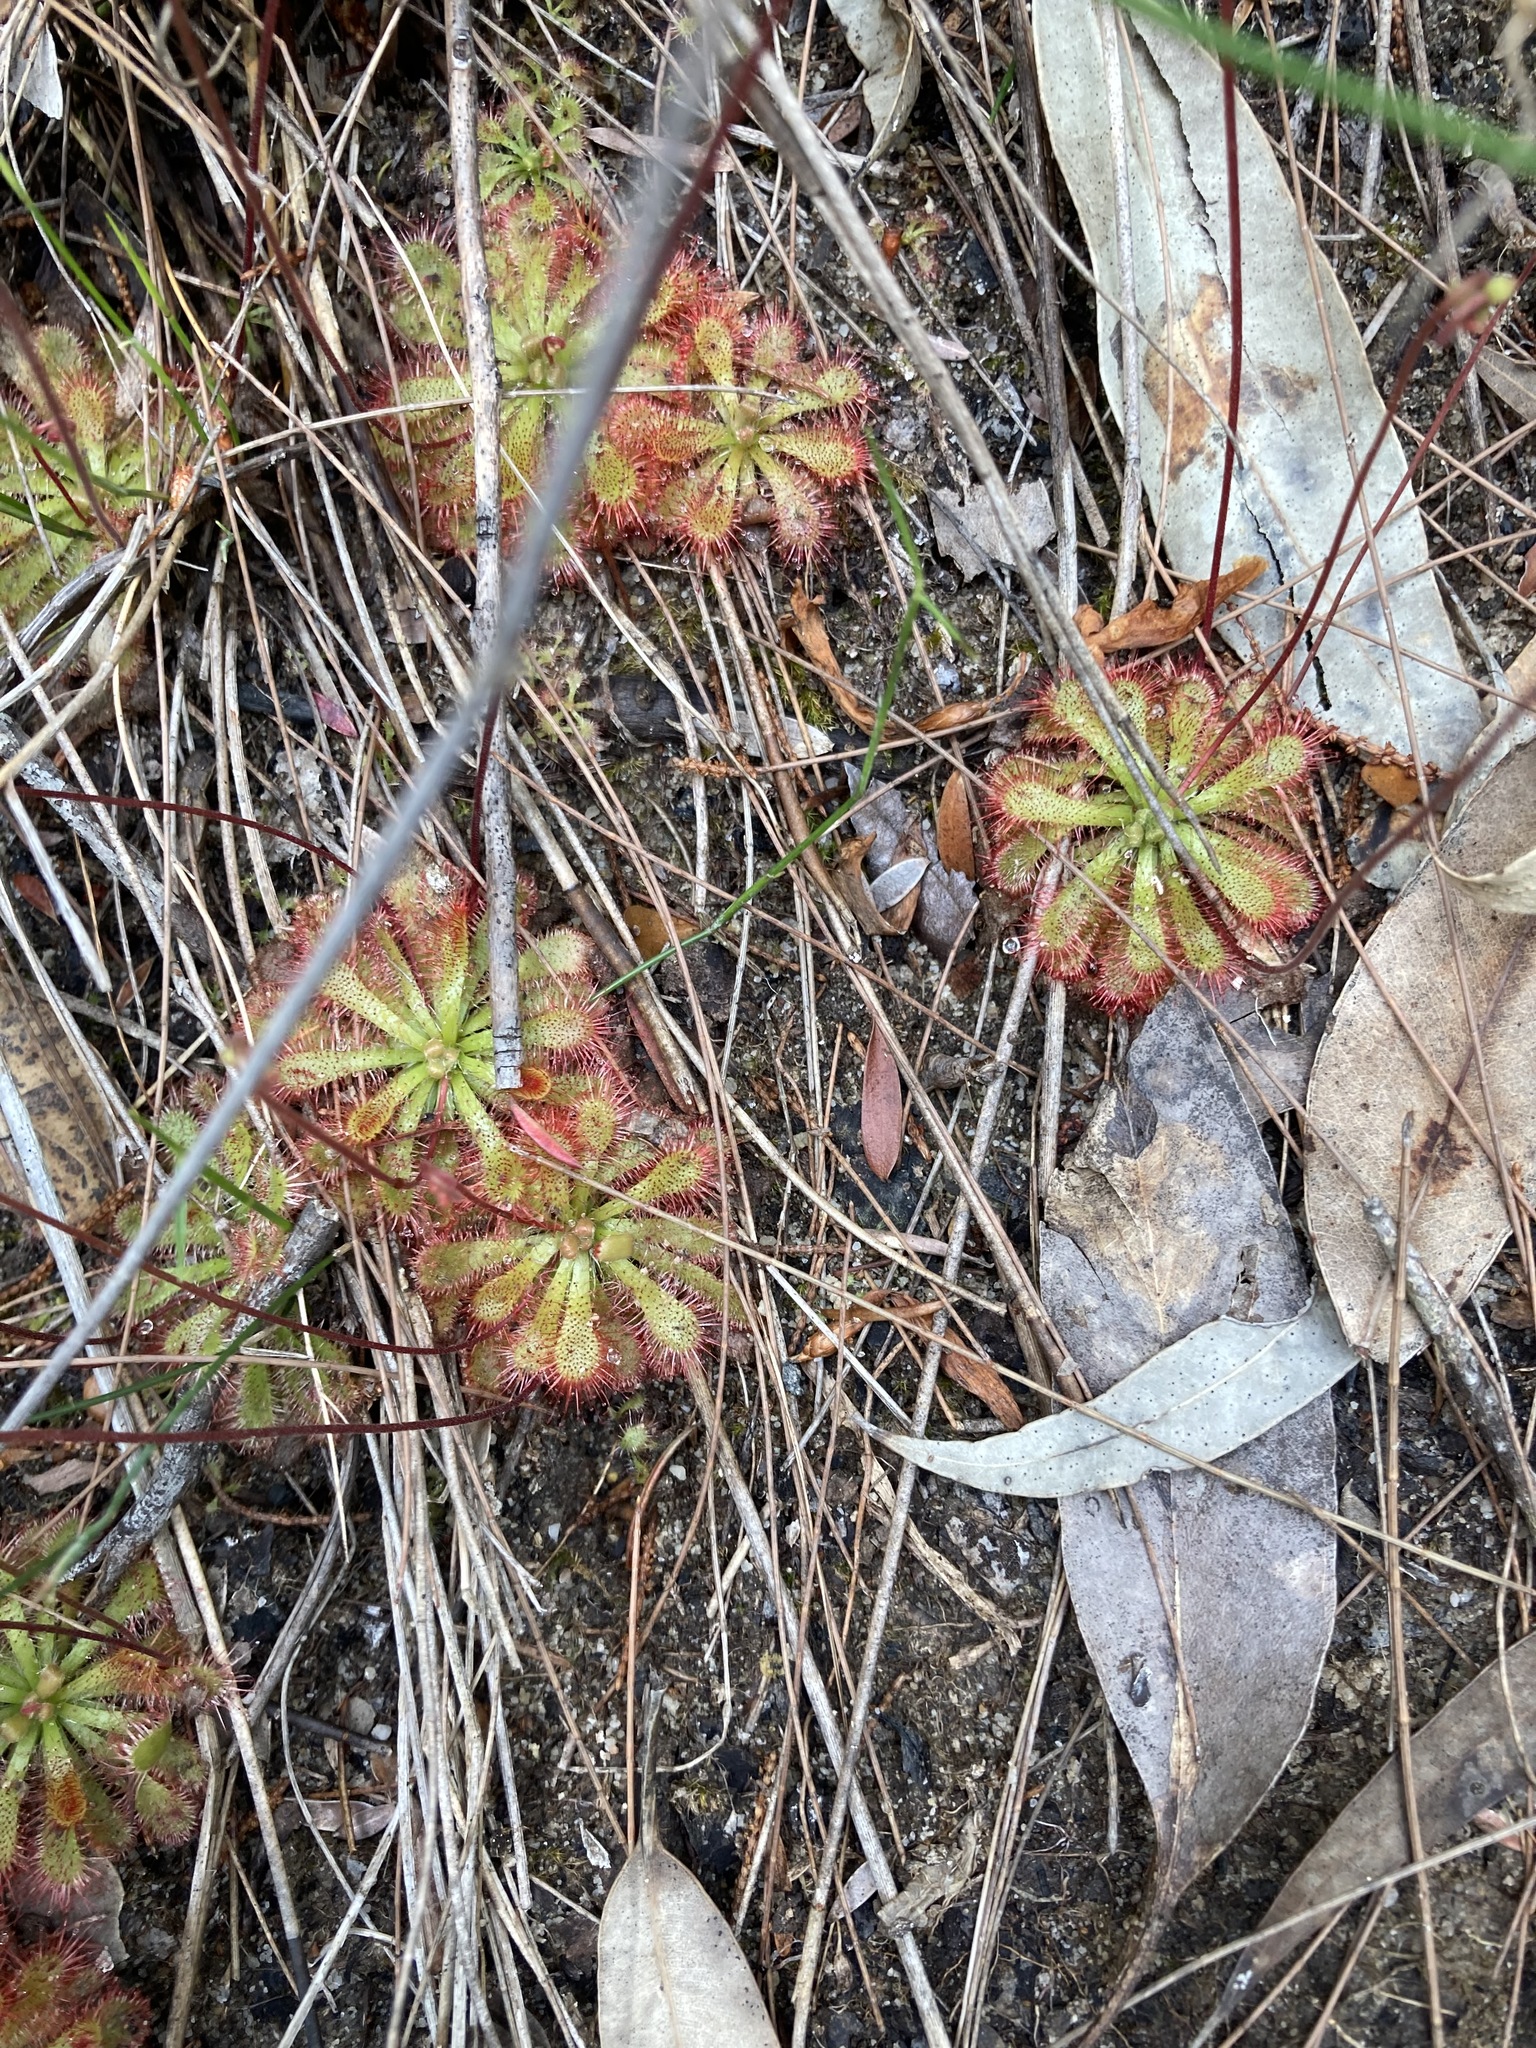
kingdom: Plantae
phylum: Tracheophyta
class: Magnoliopsida
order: Caryophyllales
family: Droseraceae
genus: Drosera
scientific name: Drosera spatulata
